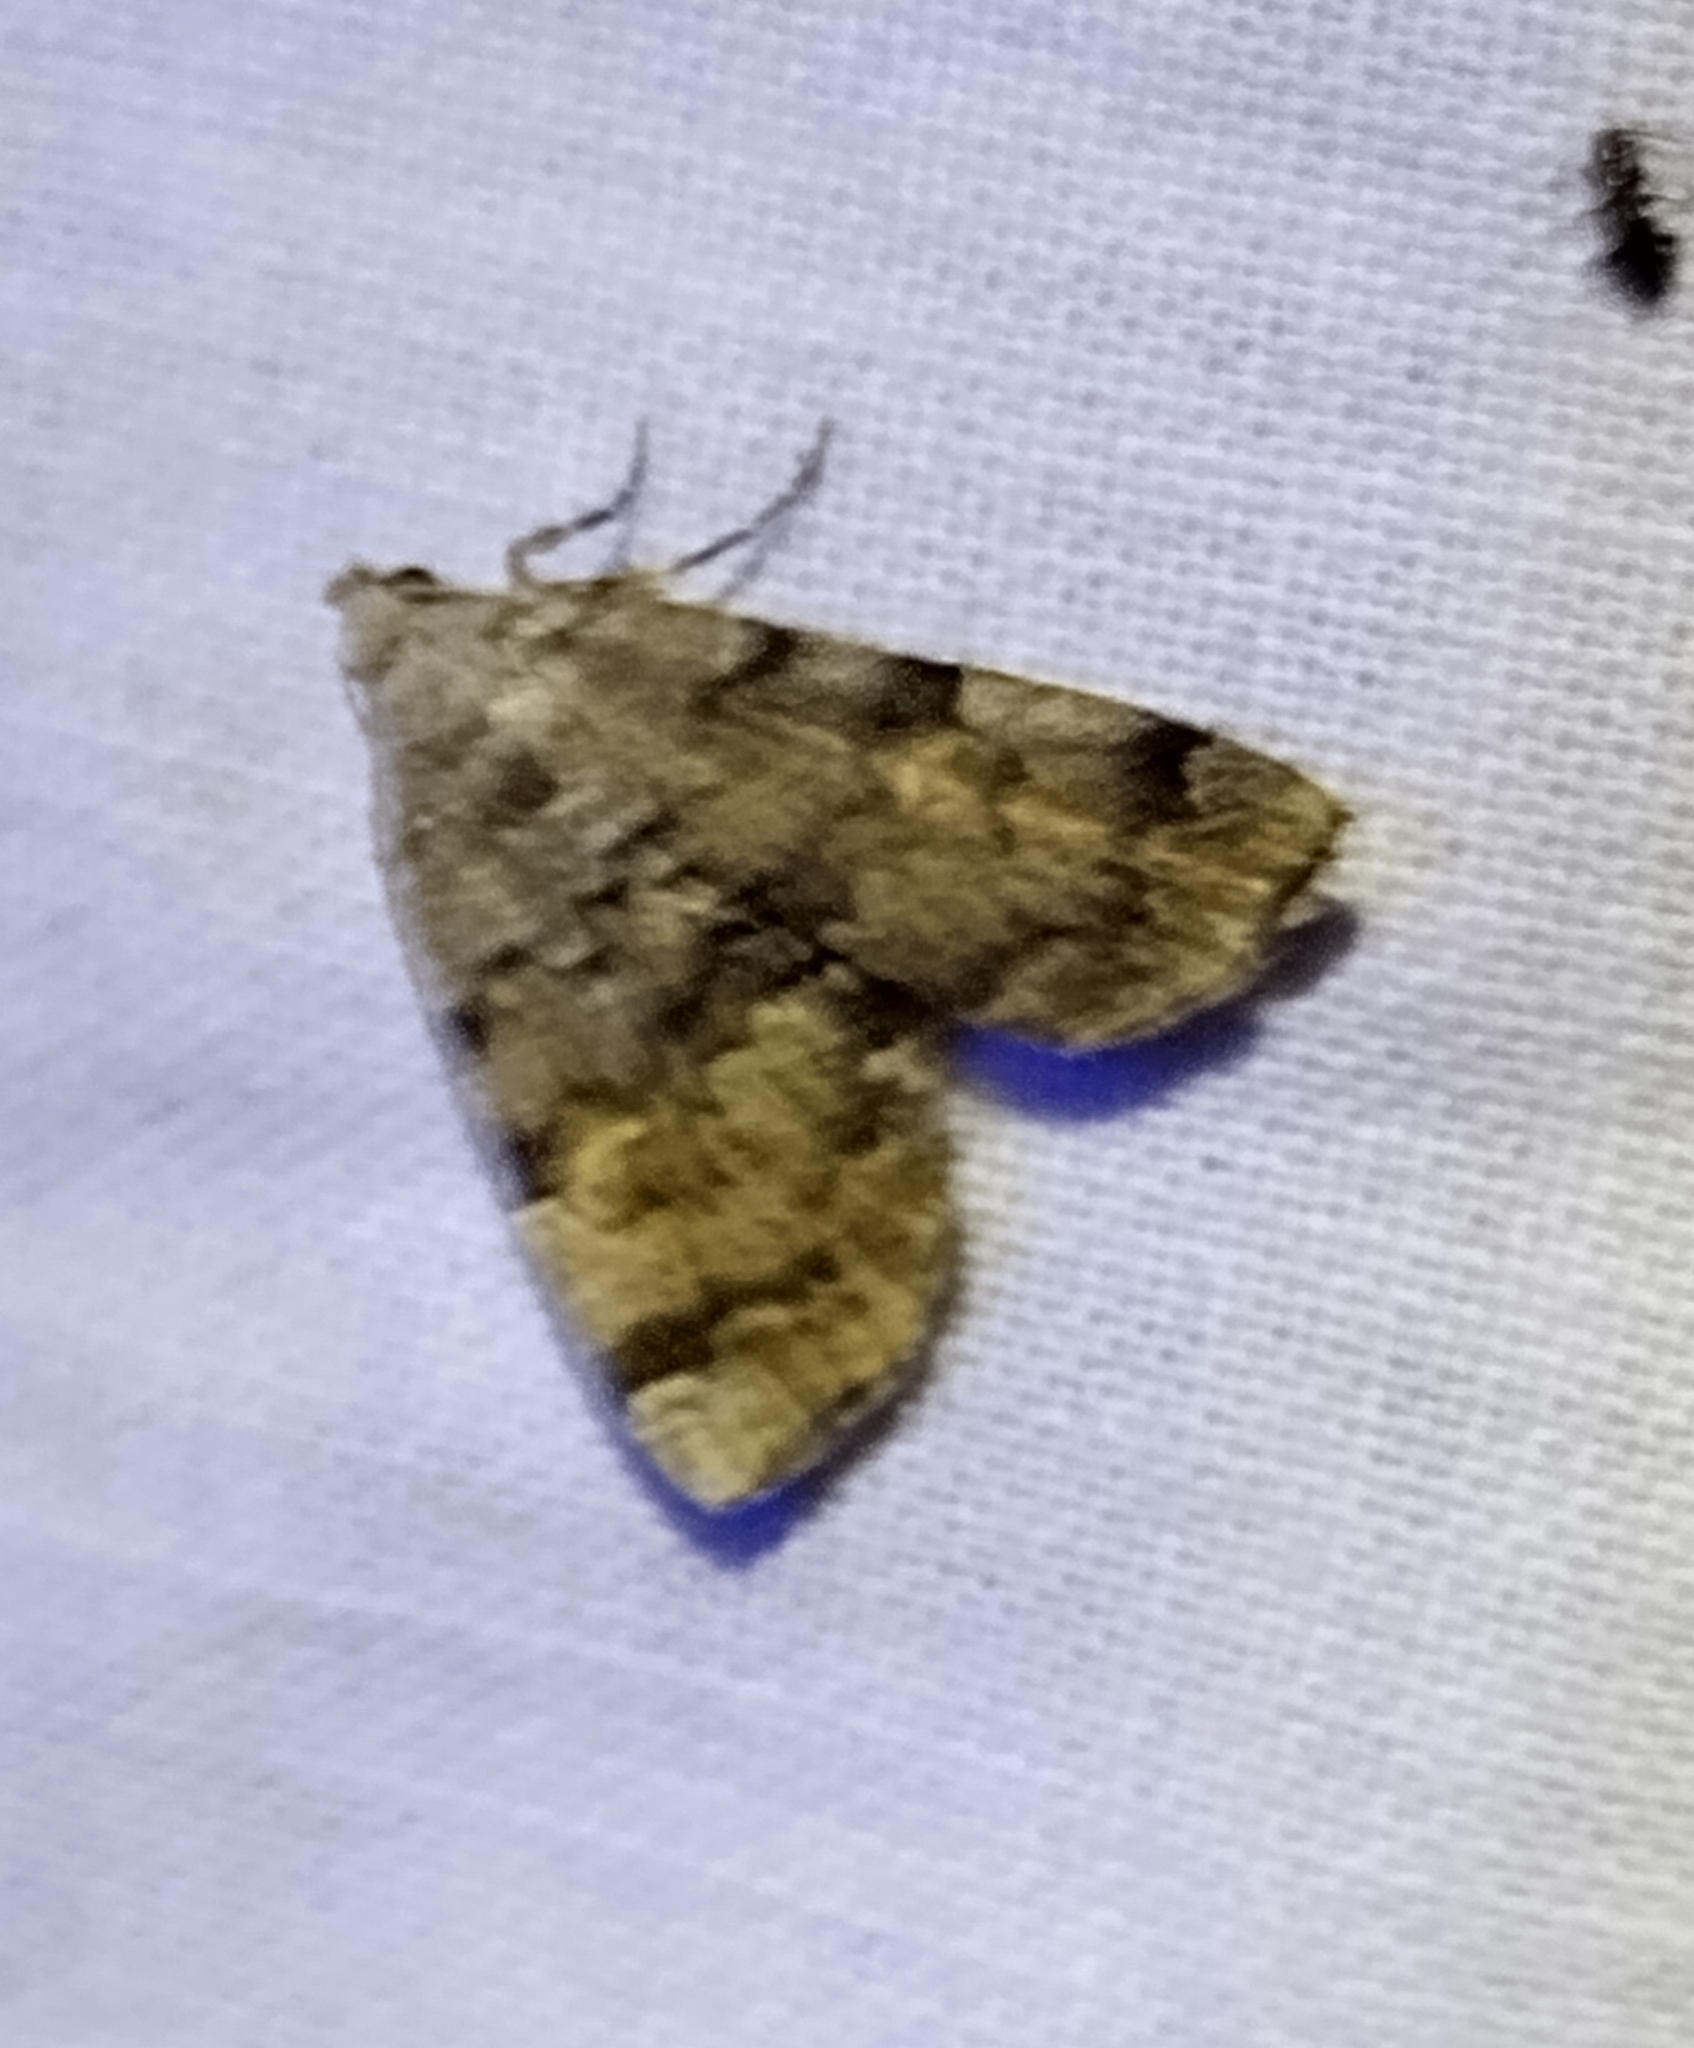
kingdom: Animalia
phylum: Arthropoda
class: Insecta
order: Lepidoptera
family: Erebidae
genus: Idia
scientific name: Idia americalis
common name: American idia moth
